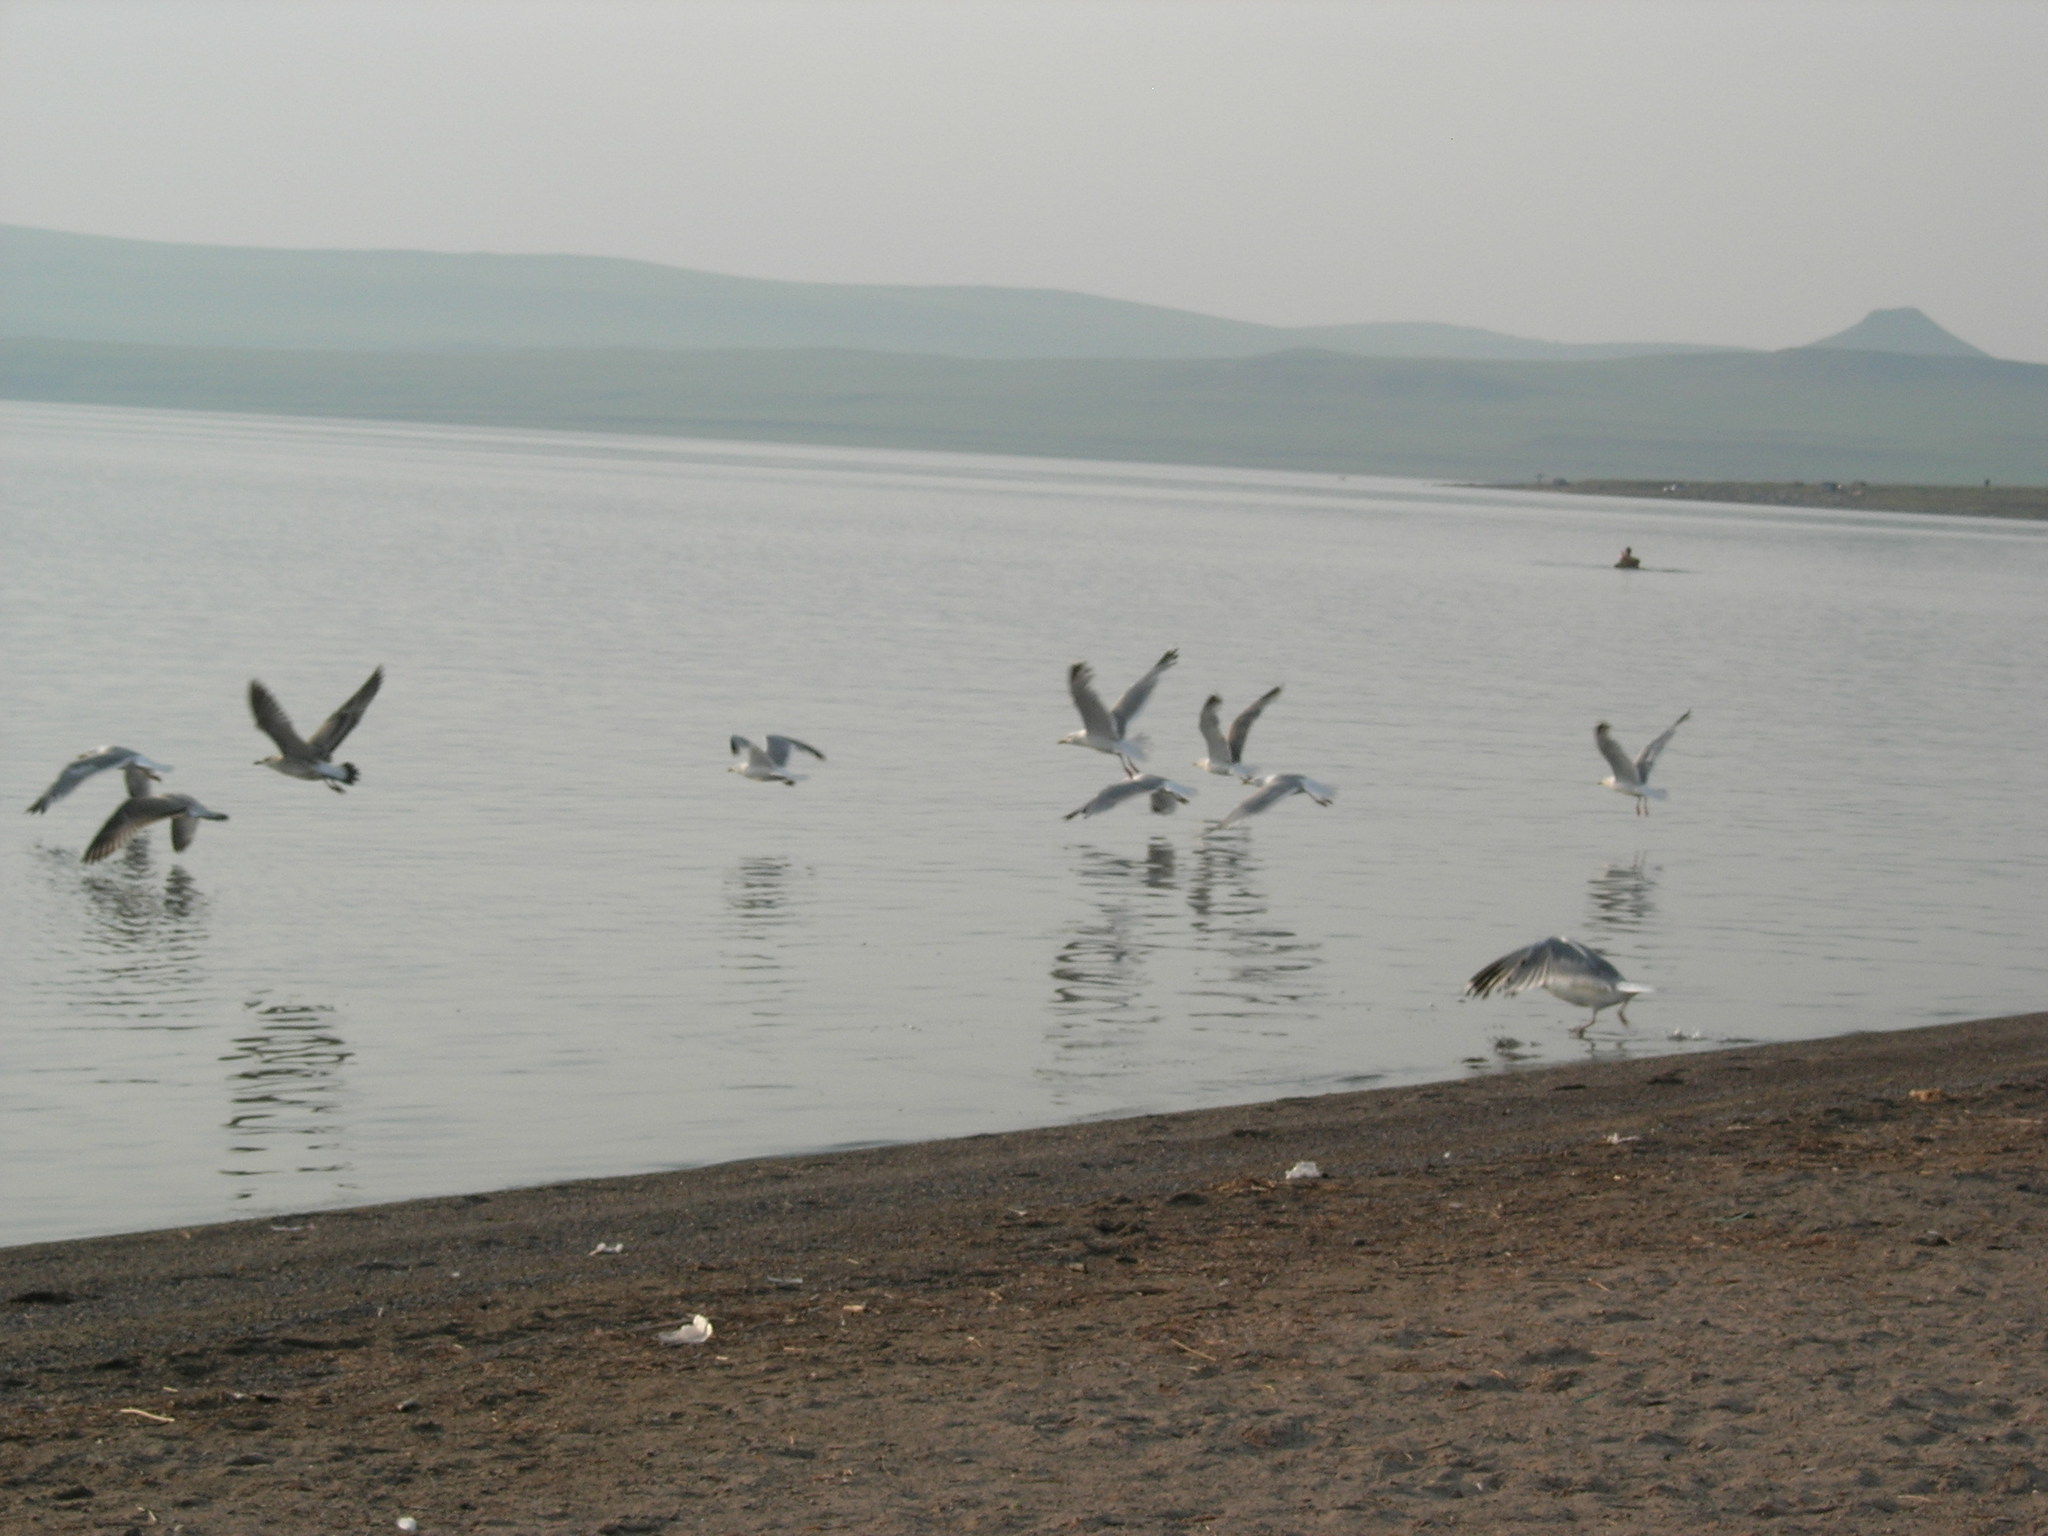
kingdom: Animalia
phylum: Chordata
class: Aves
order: Charadriiformes
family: Laridae
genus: Larus
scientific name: Larus vegae
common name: Vega gull
